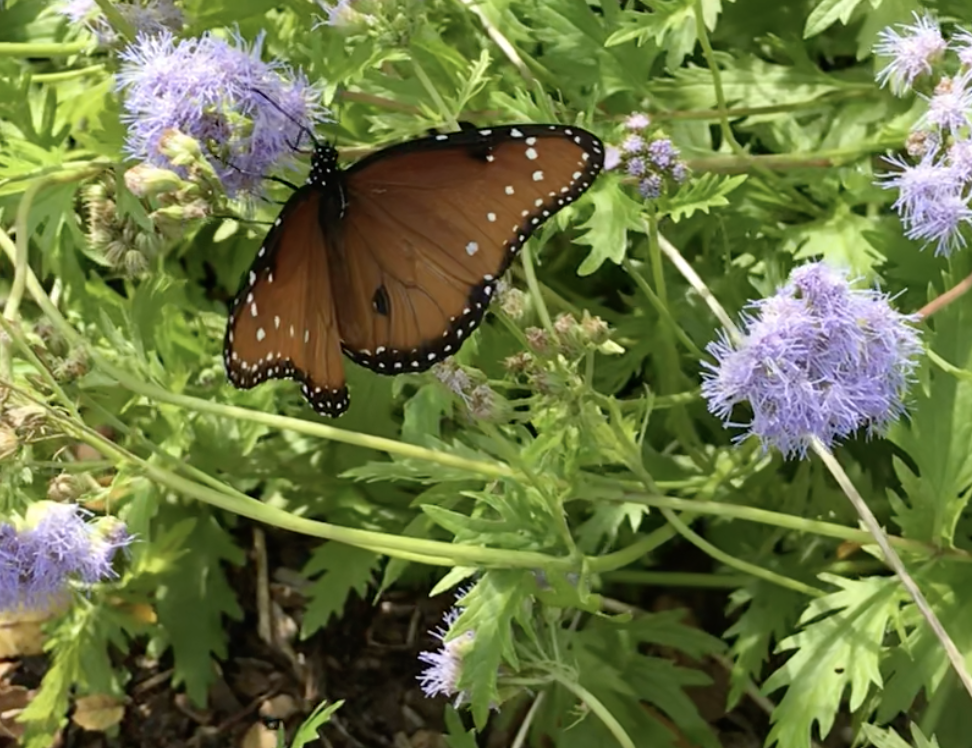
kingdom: Animalia
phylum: Arthropoda
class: Insecta
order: Lepidoptera
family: Nymphalidae
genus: Danaus
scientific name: Danaus gilippus
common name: Queen
